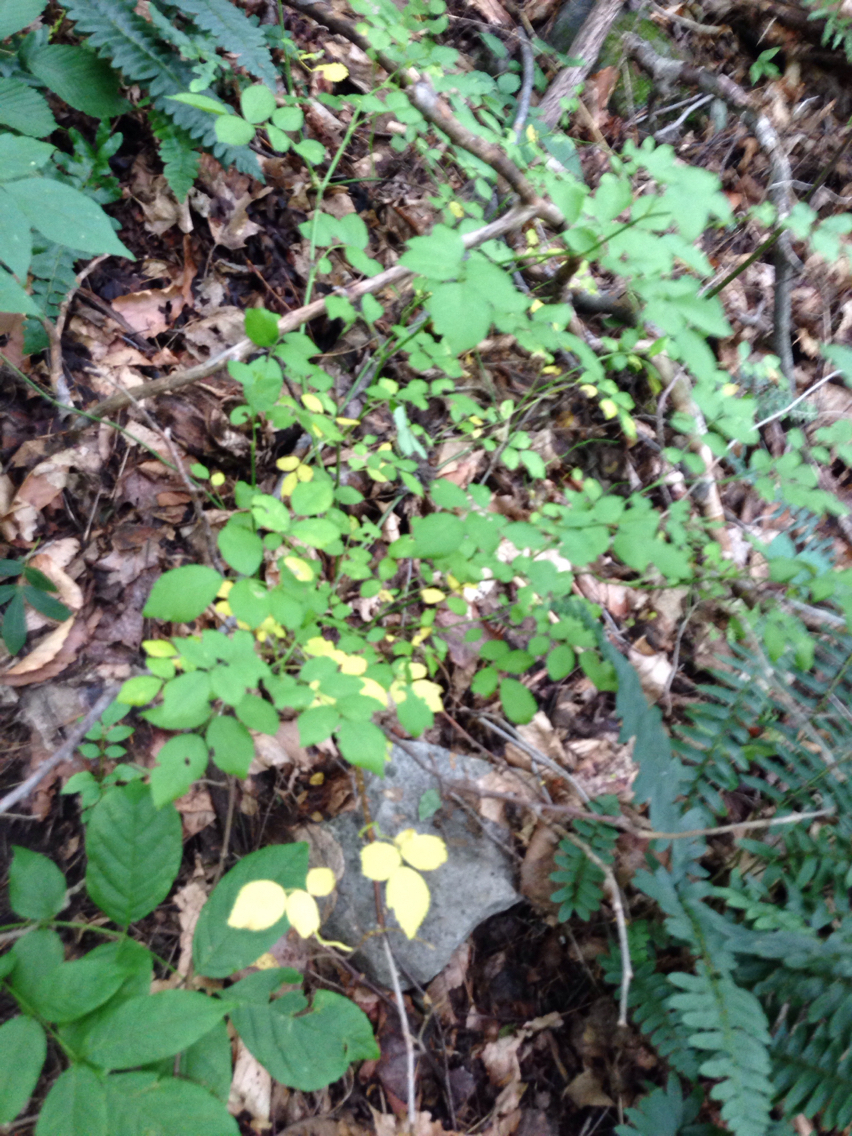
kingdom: Plantae
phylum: Tracheophyta
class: Magnoliopsida
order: Rosales
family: Rosaceae
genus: Rosa
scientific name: Rosa multiflora
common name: Multiflora rose
